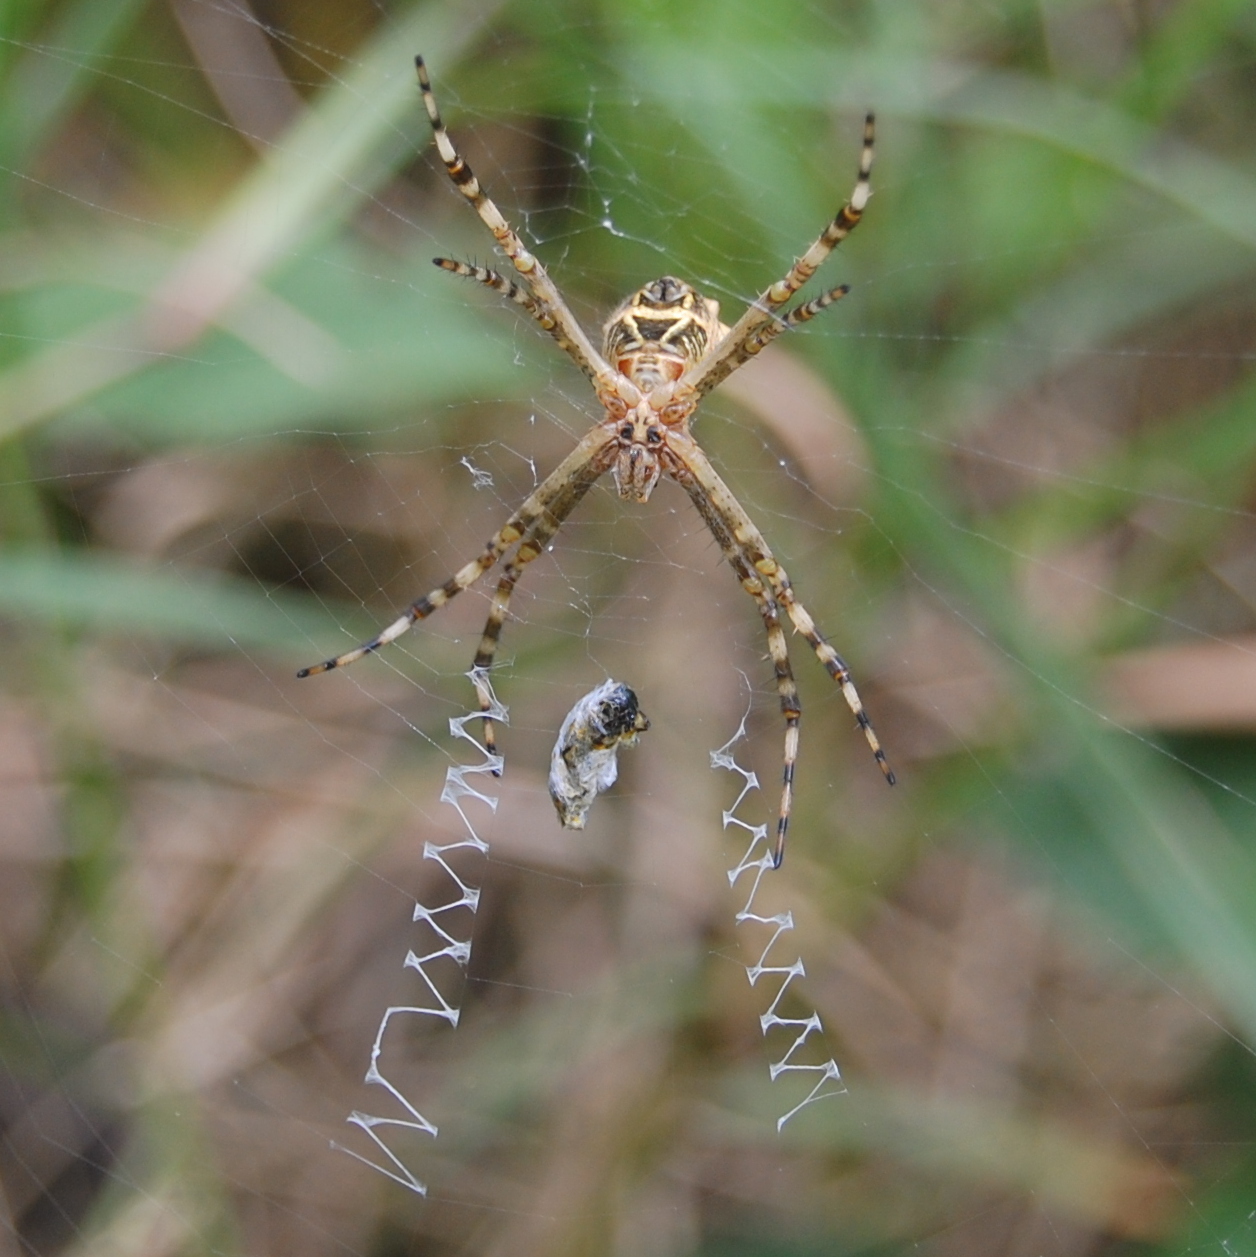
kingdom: Animalia
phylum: Arthropoda
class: Arachnida
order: Araneae
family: Araneidae
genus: Argiope
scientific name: Argiope argentata
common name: Orb weavers
